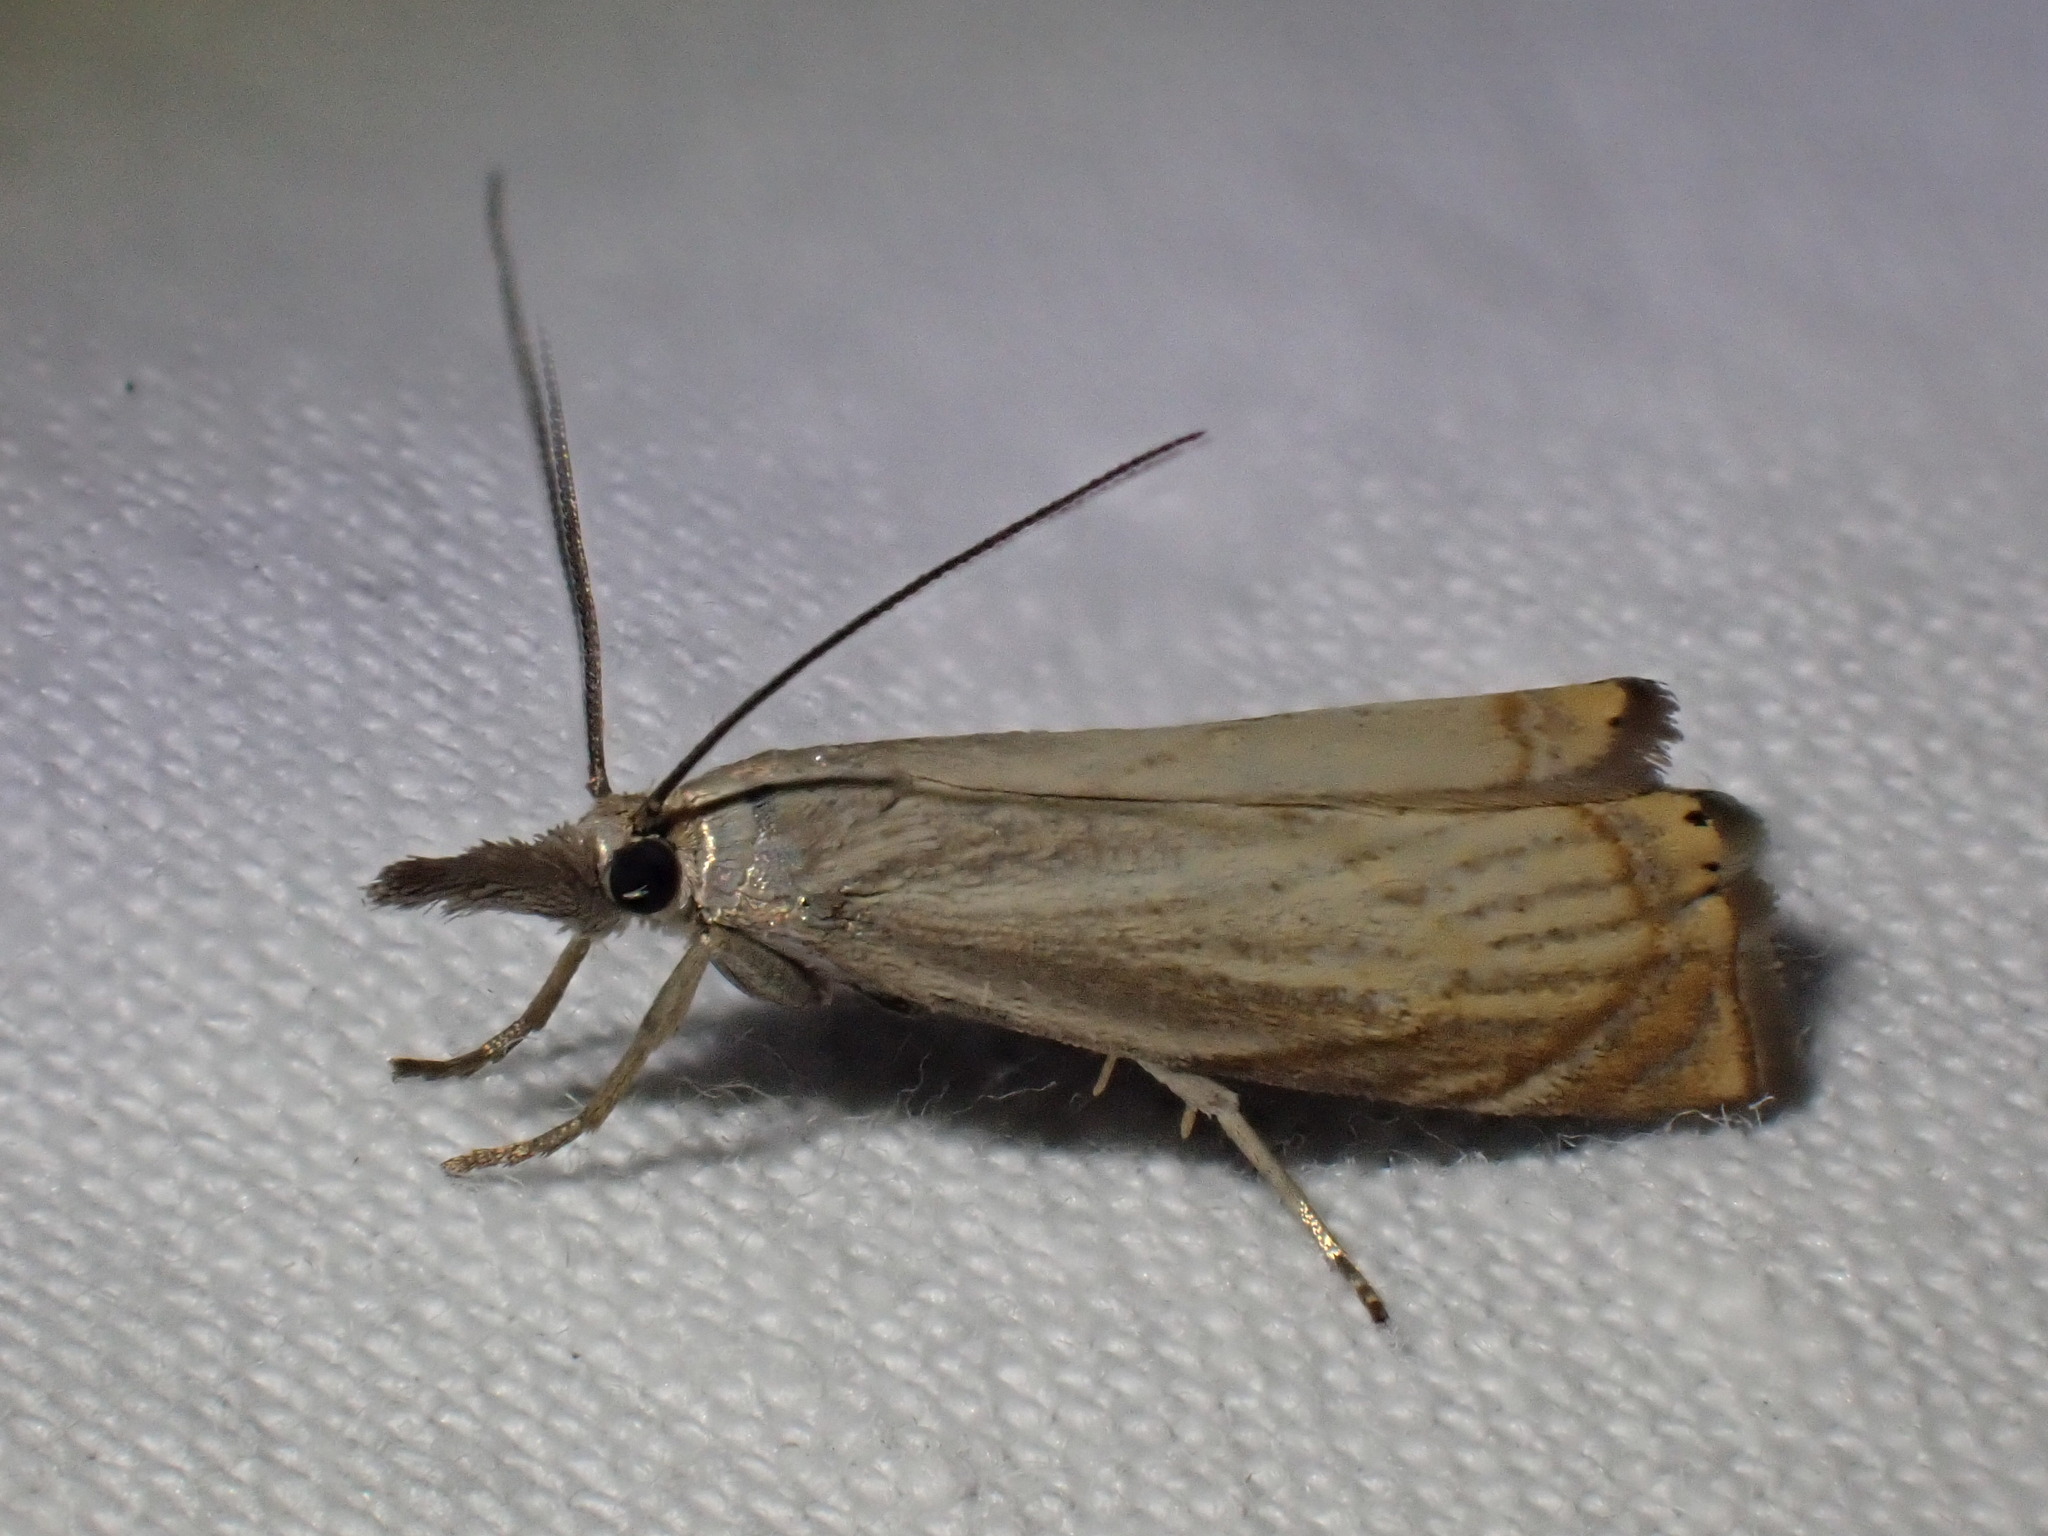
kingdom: Animalia
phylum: Arthropoda
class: Insecta
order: Lepidoptera
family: Crambidae
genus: Chrysoteuchia
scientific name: Chrysoteuchia culmella
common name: Garden grass-veneer
